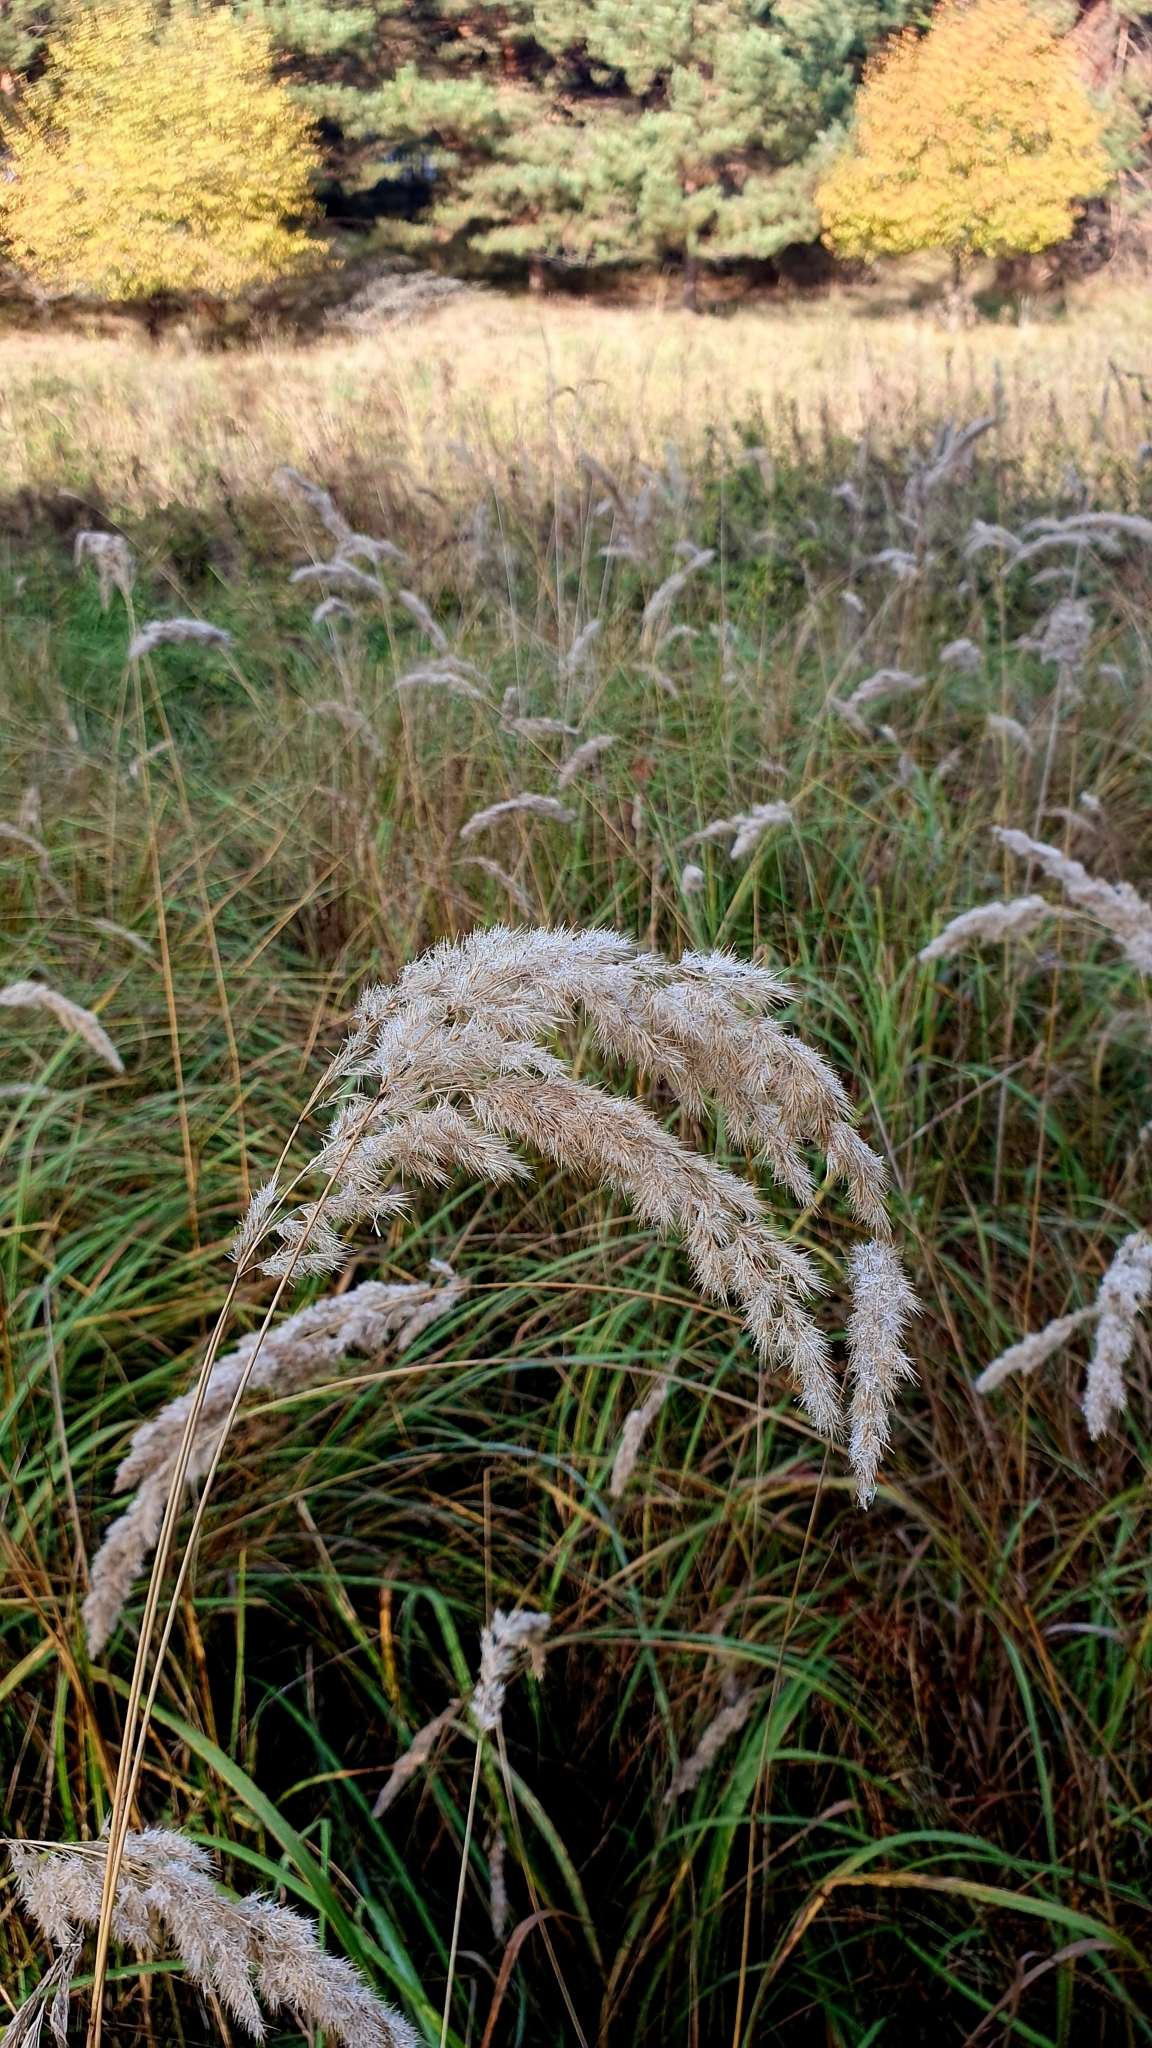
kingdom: Plantae
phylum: Tracheophyta
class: Liliopsida
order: Poales
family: Poaceae
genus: Calamagrostis
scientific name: Calamagrostis epigejos
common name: Wood small-reed
